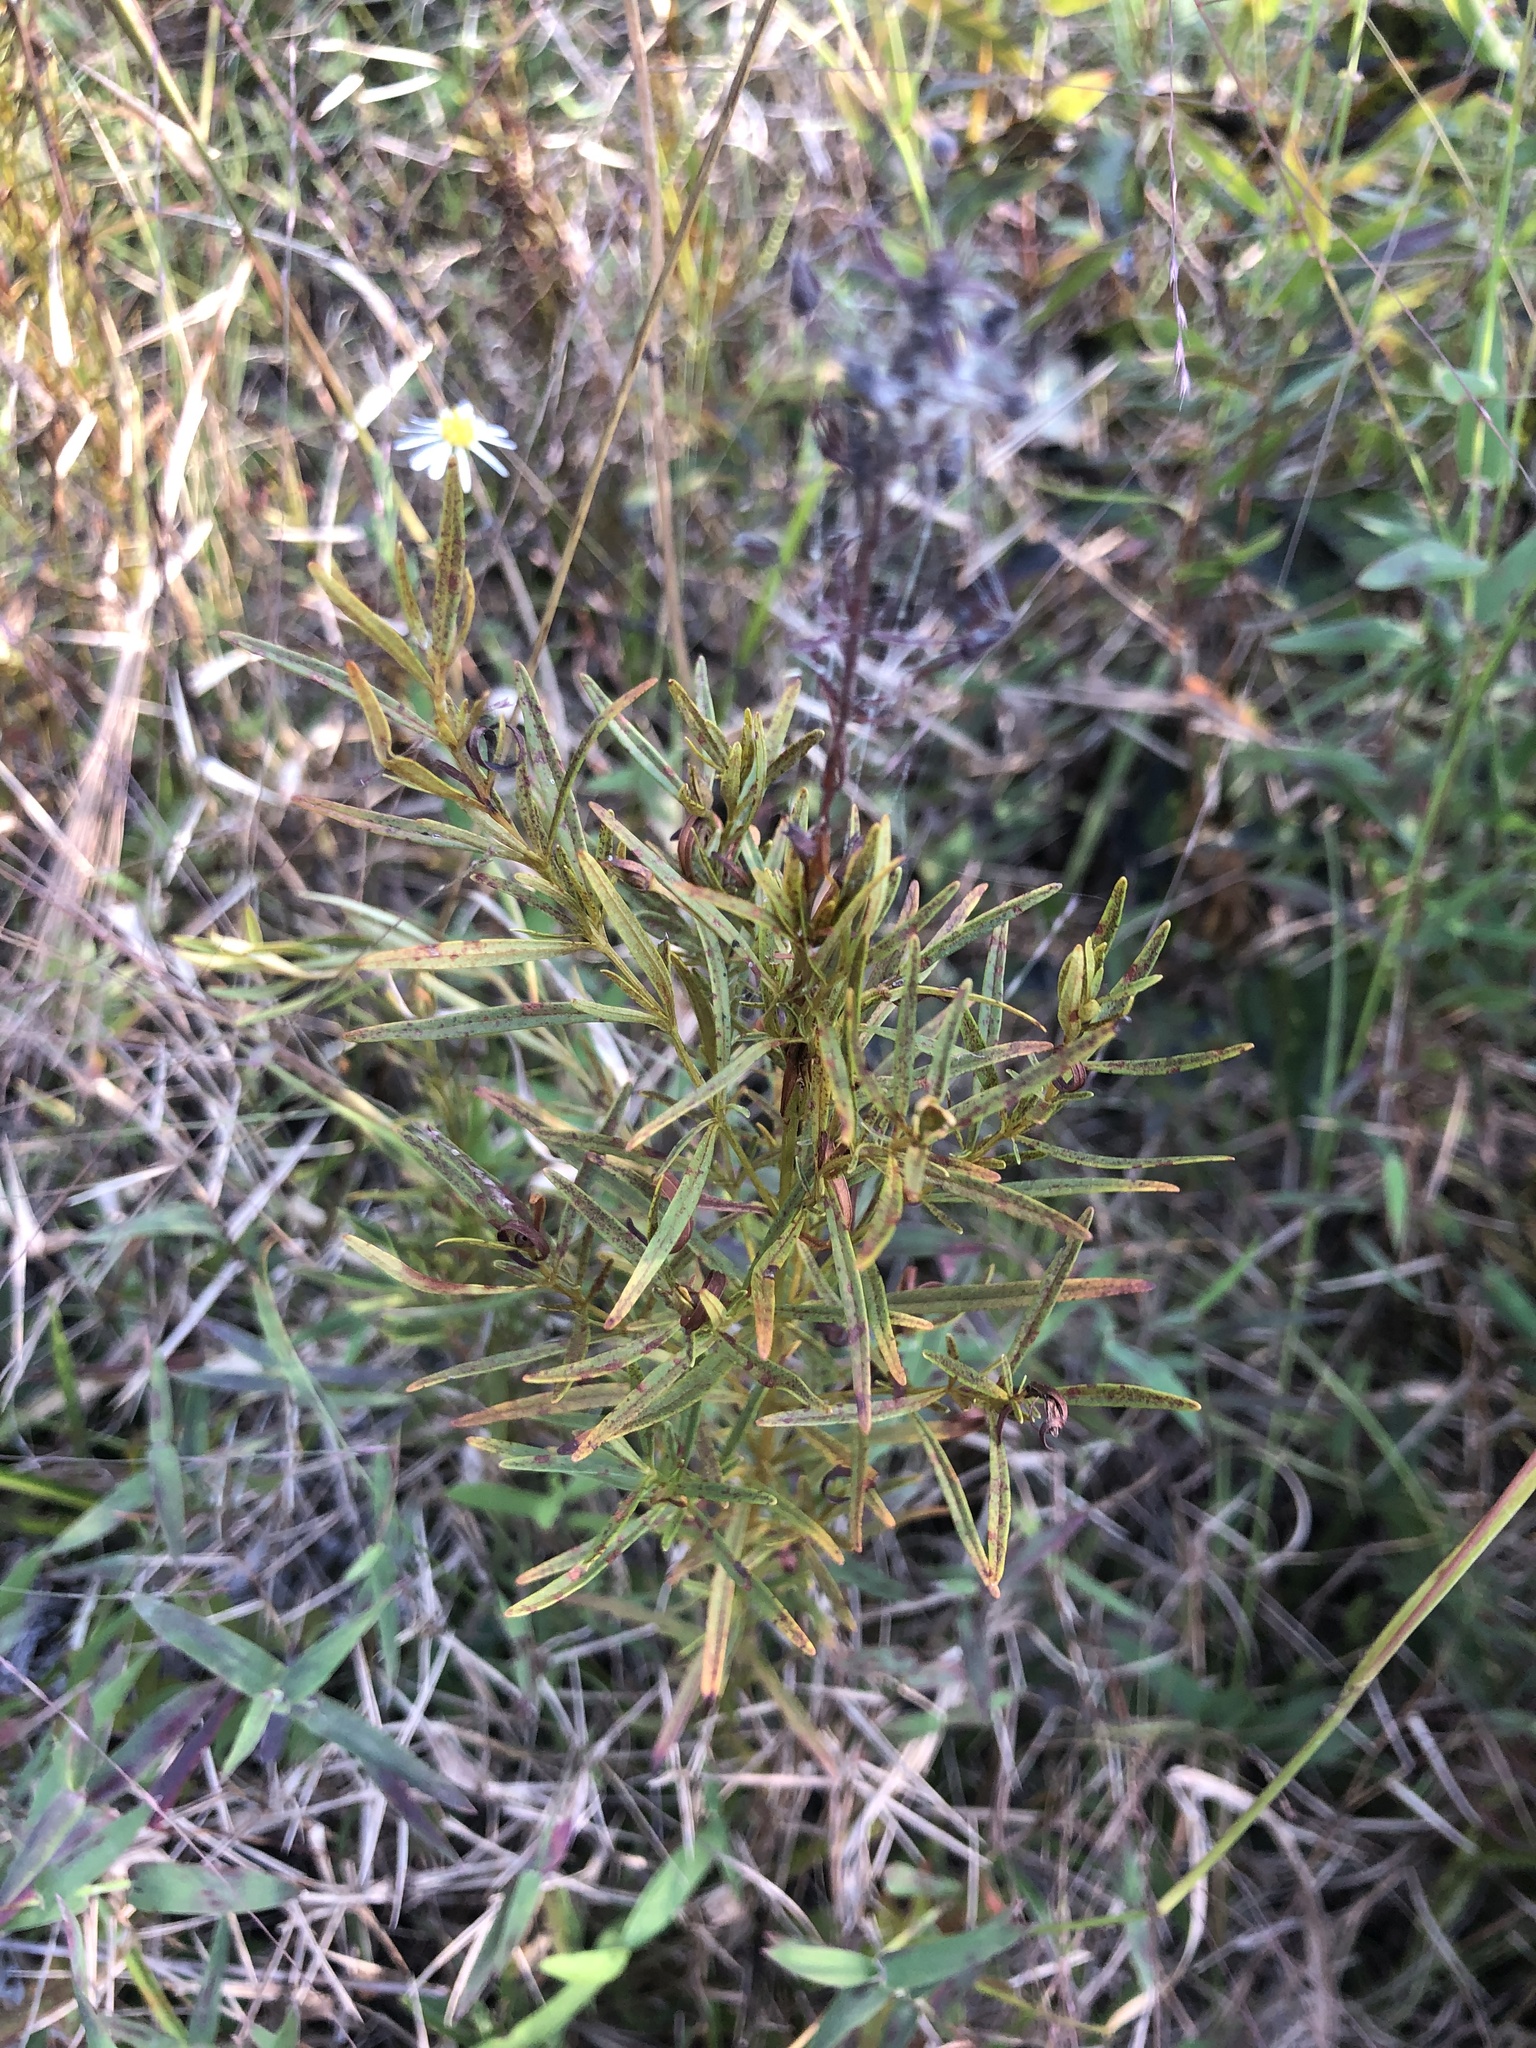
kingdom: Plantae
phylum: Tracheophyta
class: Magnoliopsida
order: Ericales
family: Primulaceae
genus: Lysimachia
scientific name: Lysimachia loomisii
